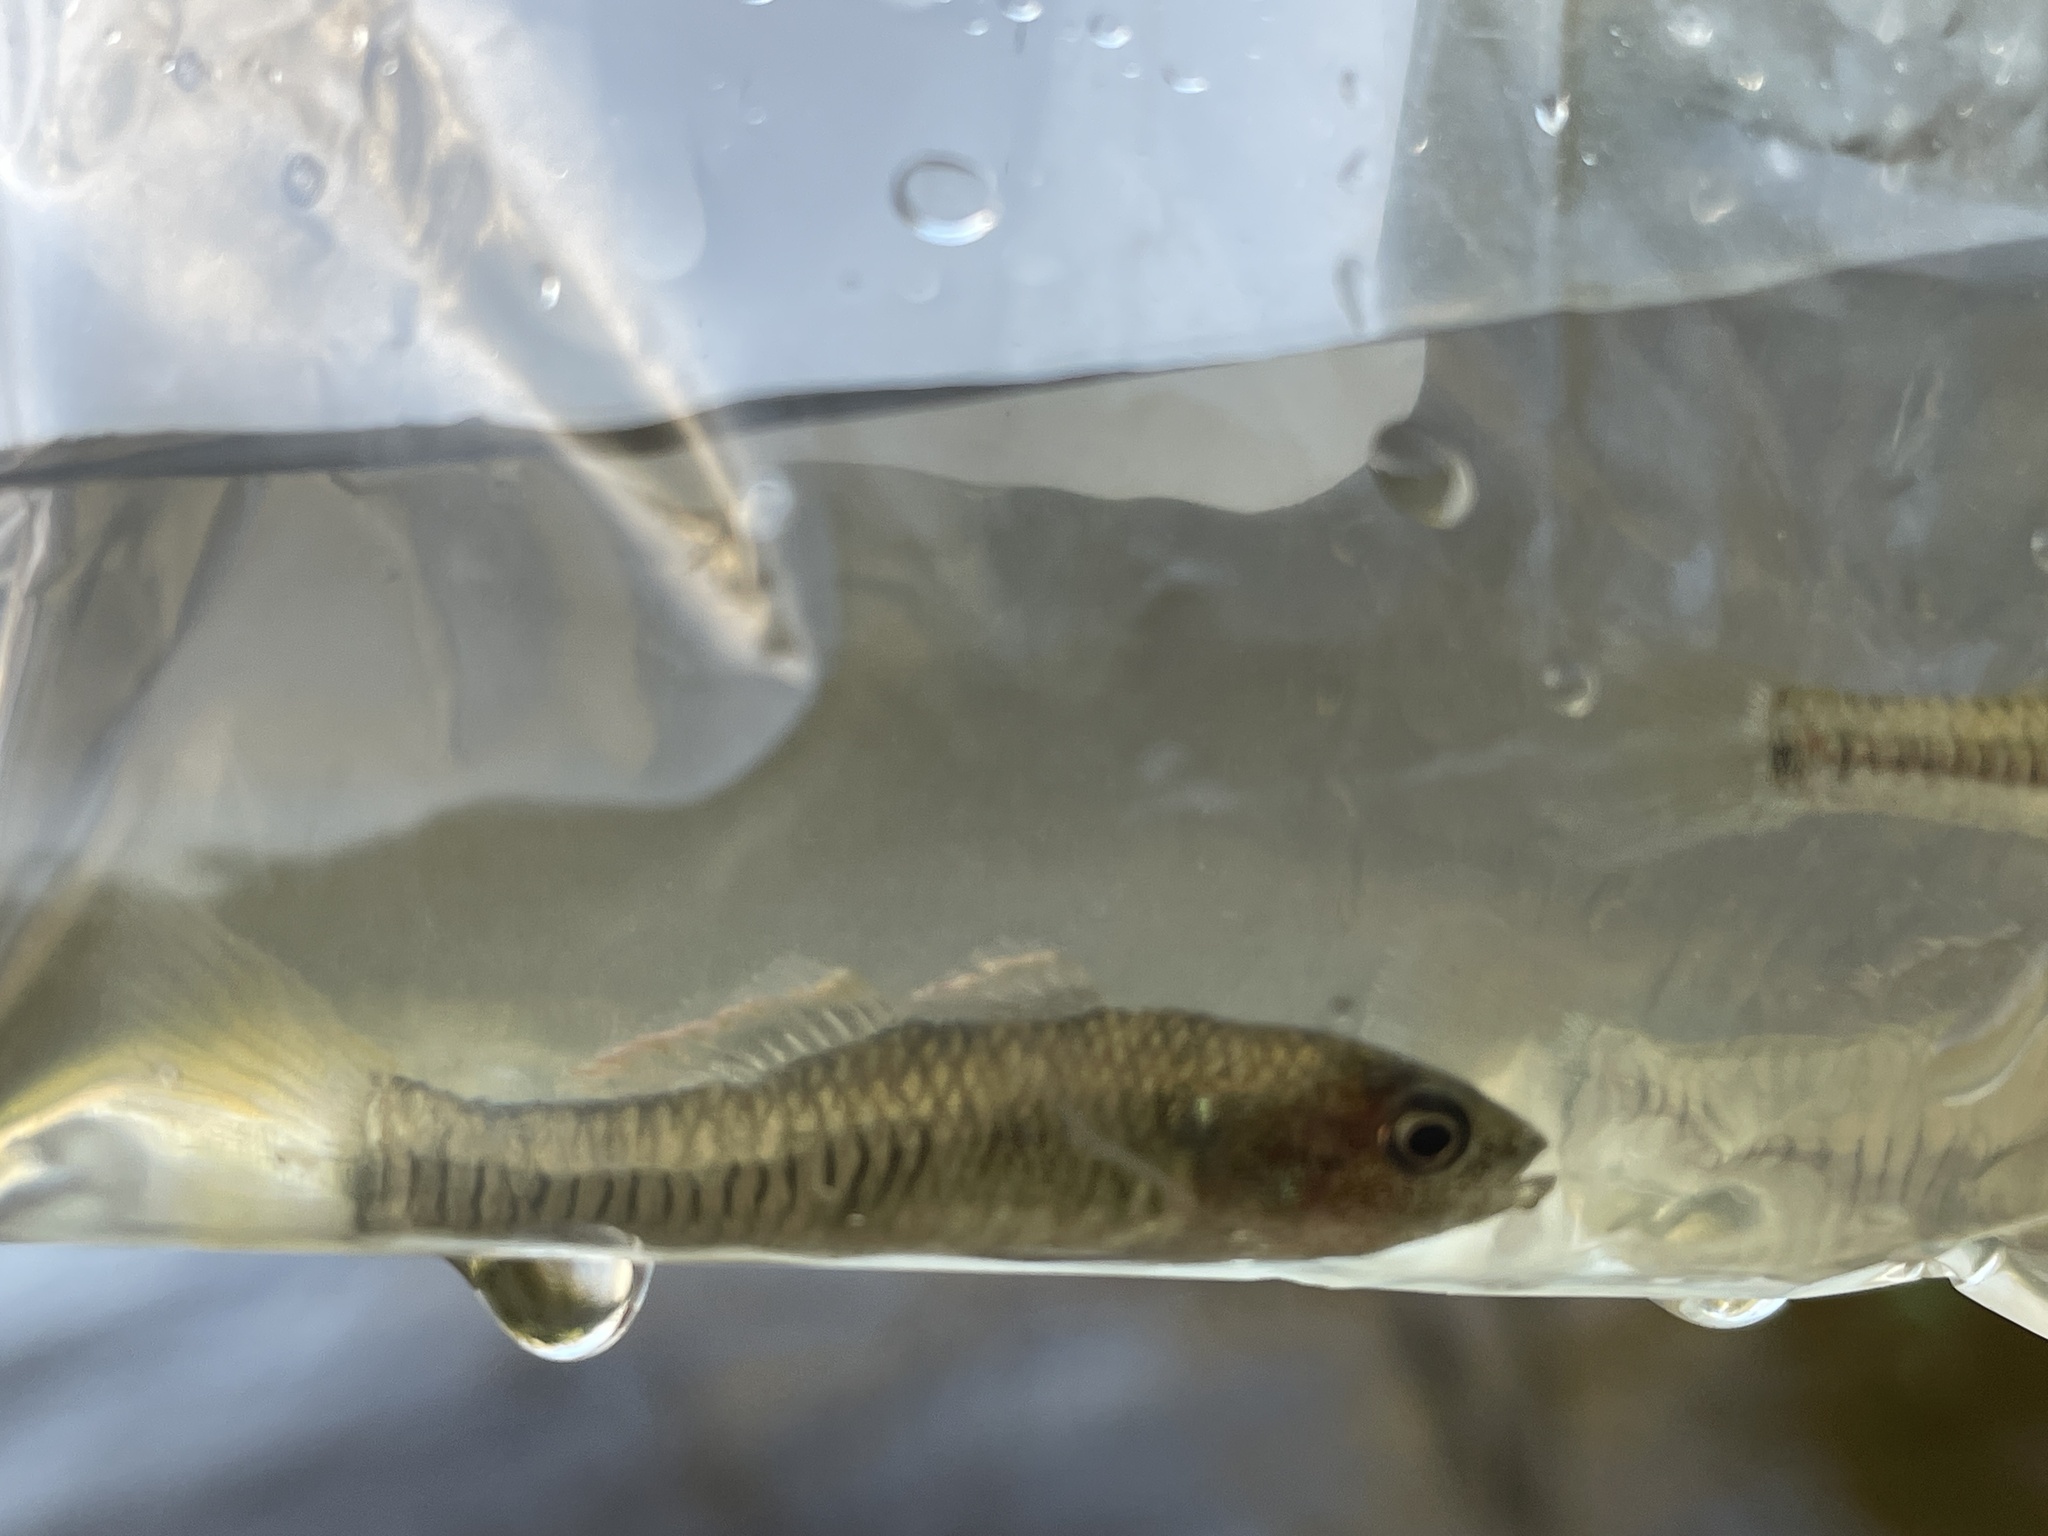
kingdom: Animalia
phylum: Chordata
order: Perciformes
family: Eleotridae
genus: Hypseleotris
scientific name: Hypseleotris klunzingeri
